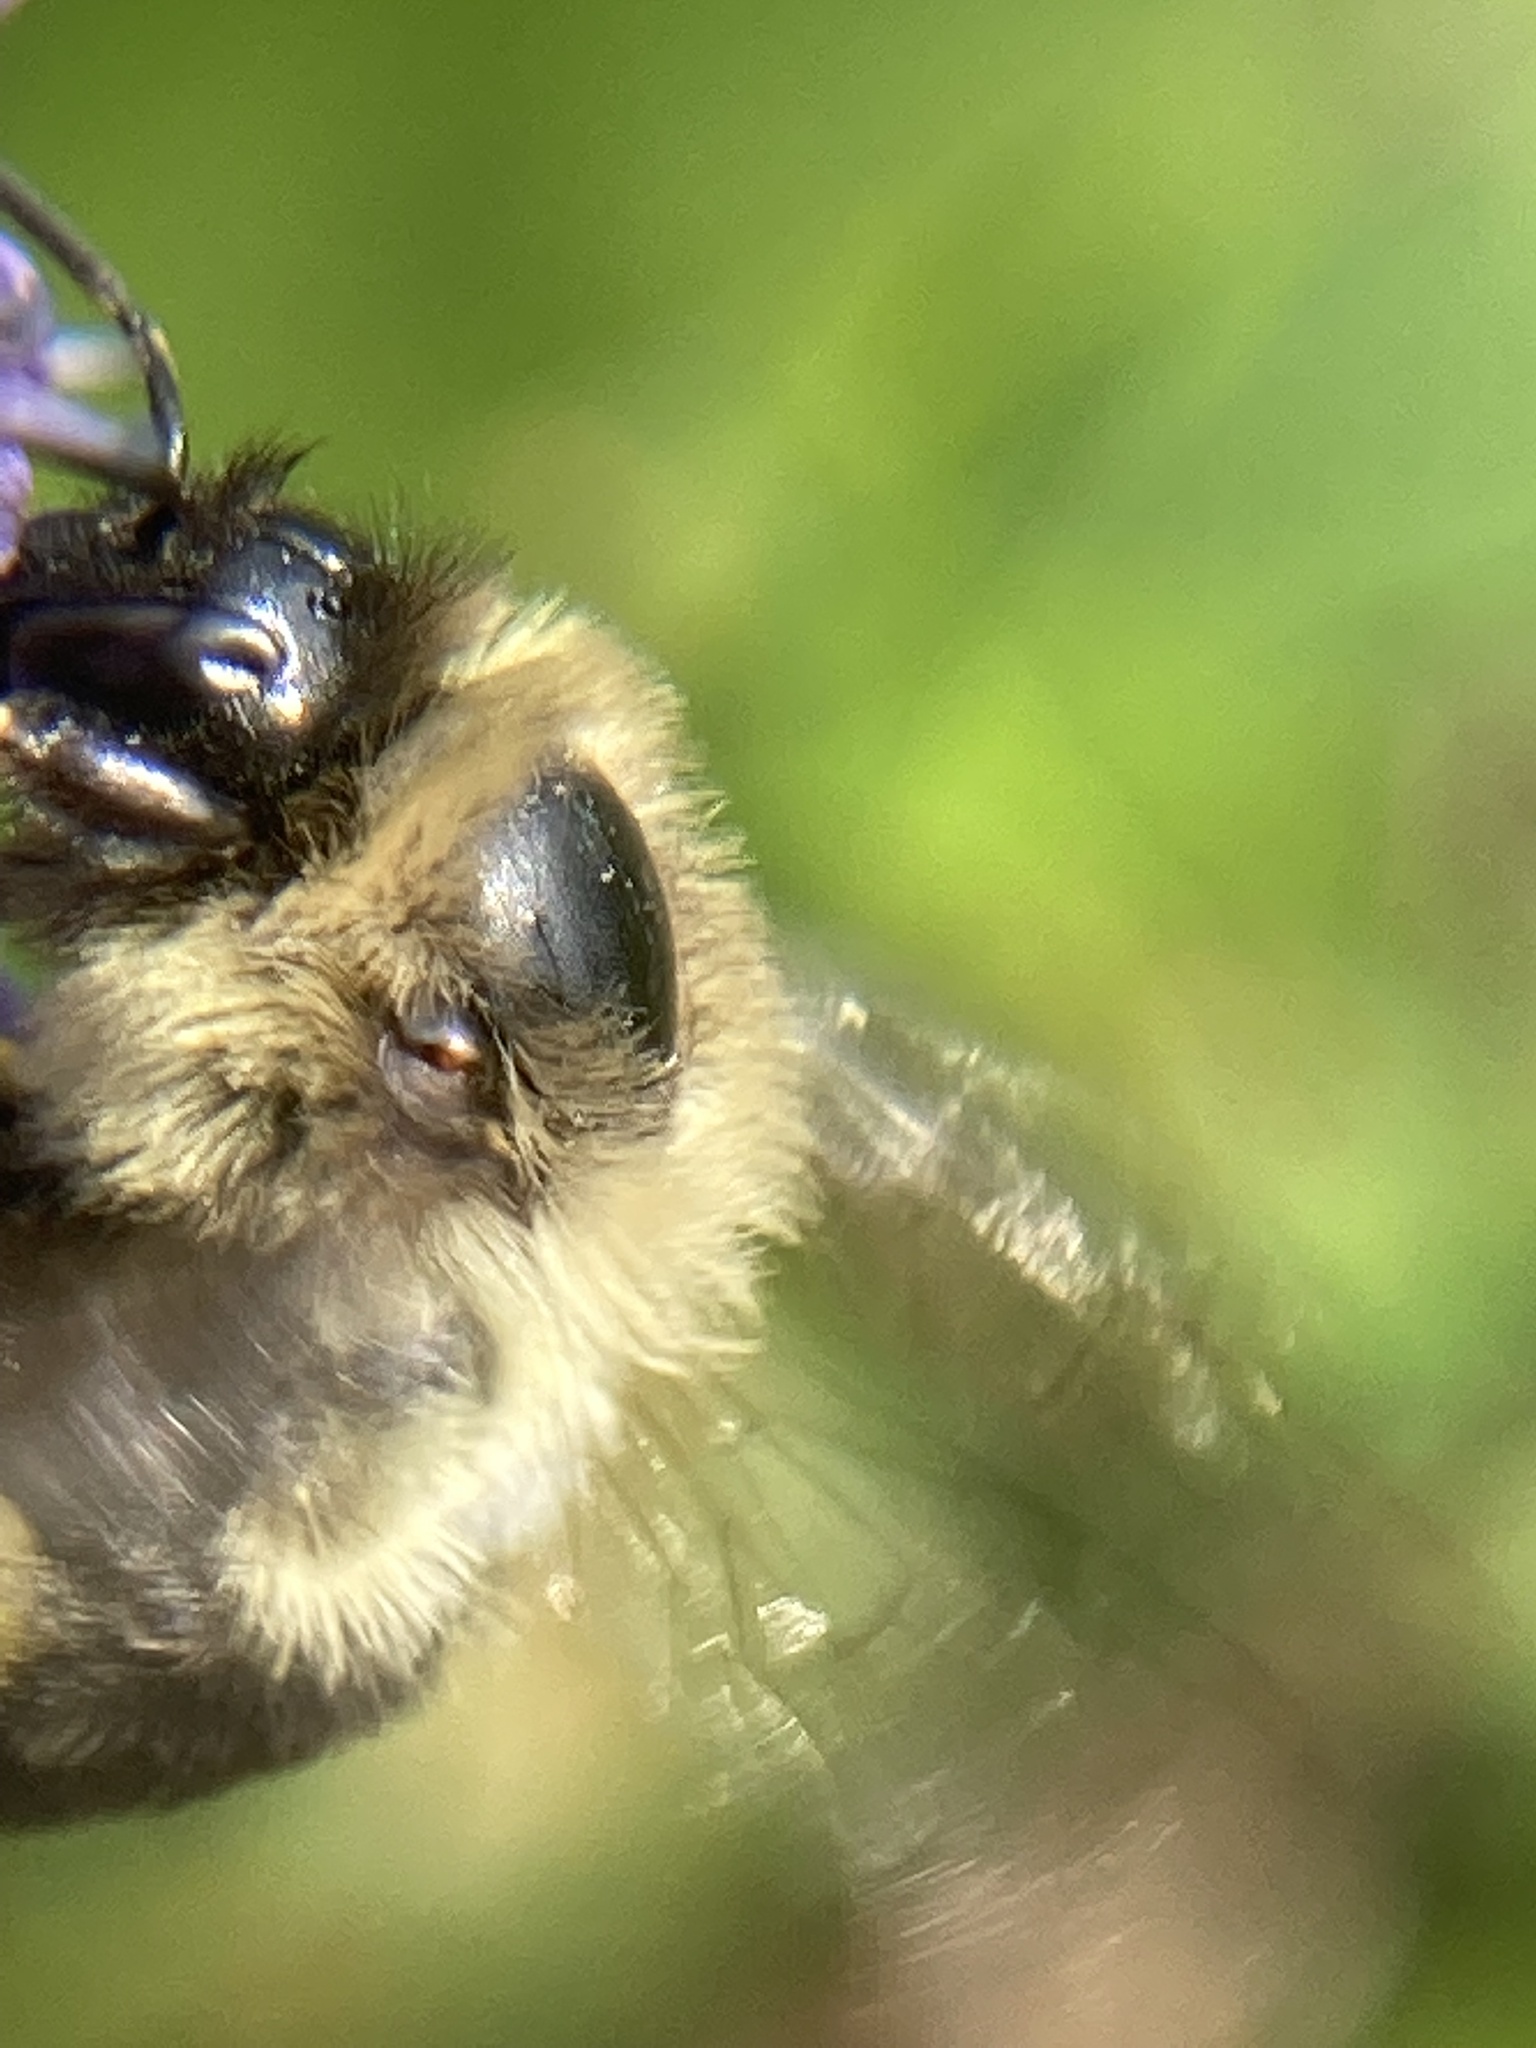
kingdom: Animalia
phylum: Arthropoda
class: Insecta
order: Hymenoptera
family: Apidae
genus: Bombus
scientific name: Bombus impatiens
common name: Common eastern bumble bee
